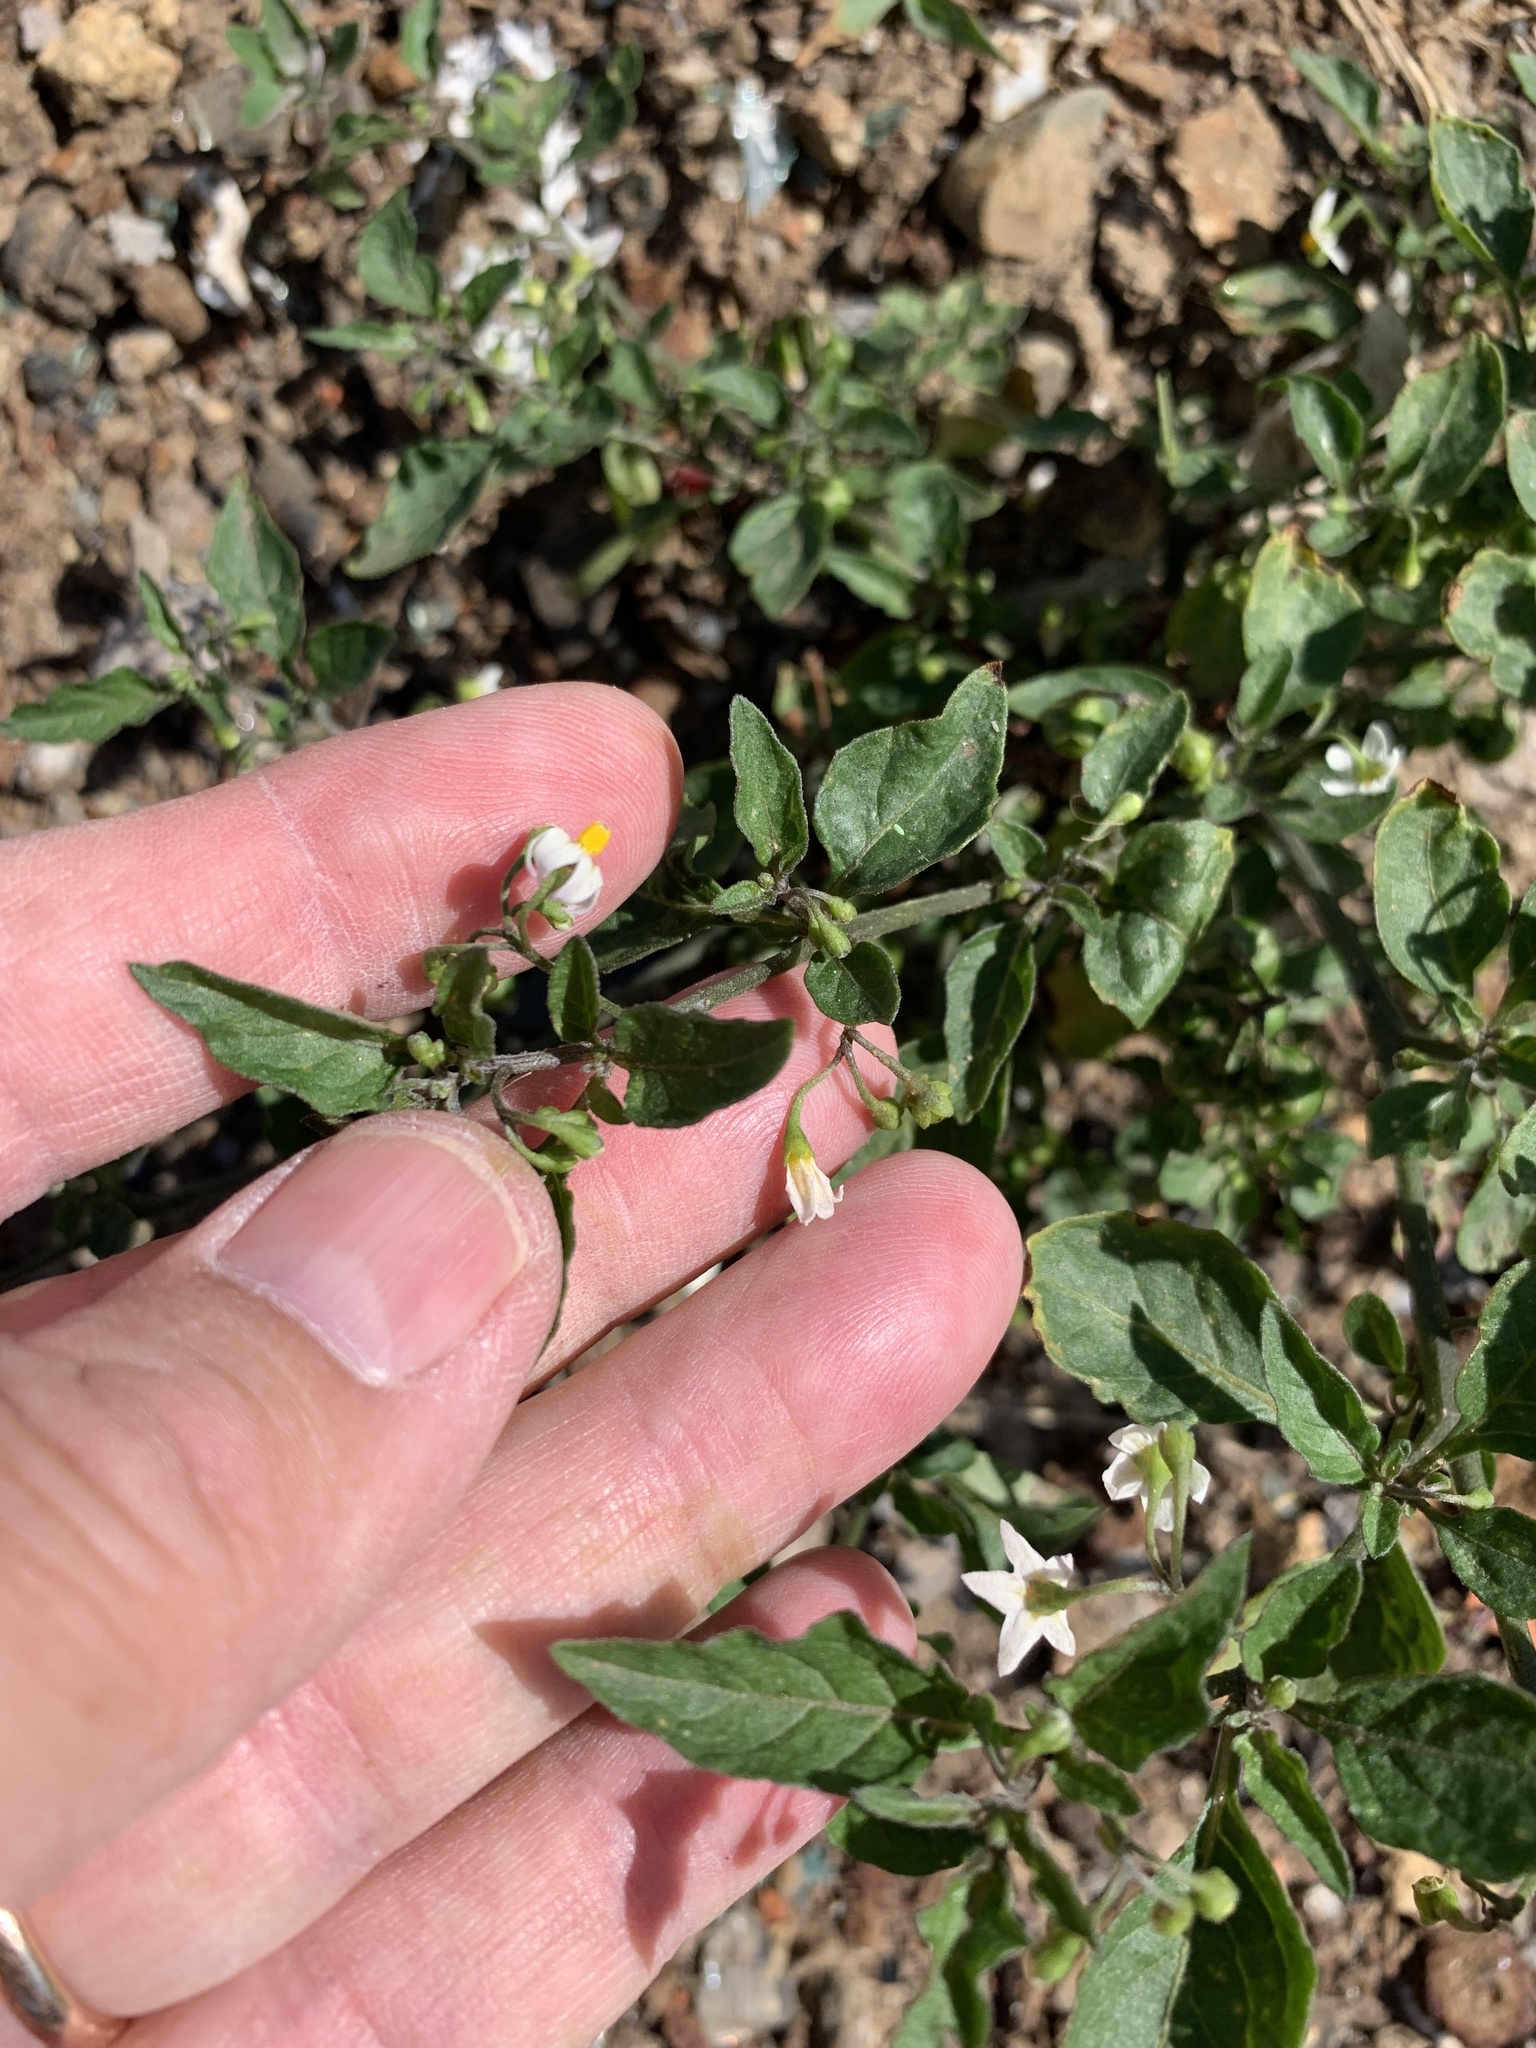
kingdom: Plantae
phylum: Tracheophyta
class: Magnoliopsida
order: Solanales
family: Solanaceae
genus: Solanum
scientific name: Solanum nigrum
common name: Black nightshade
